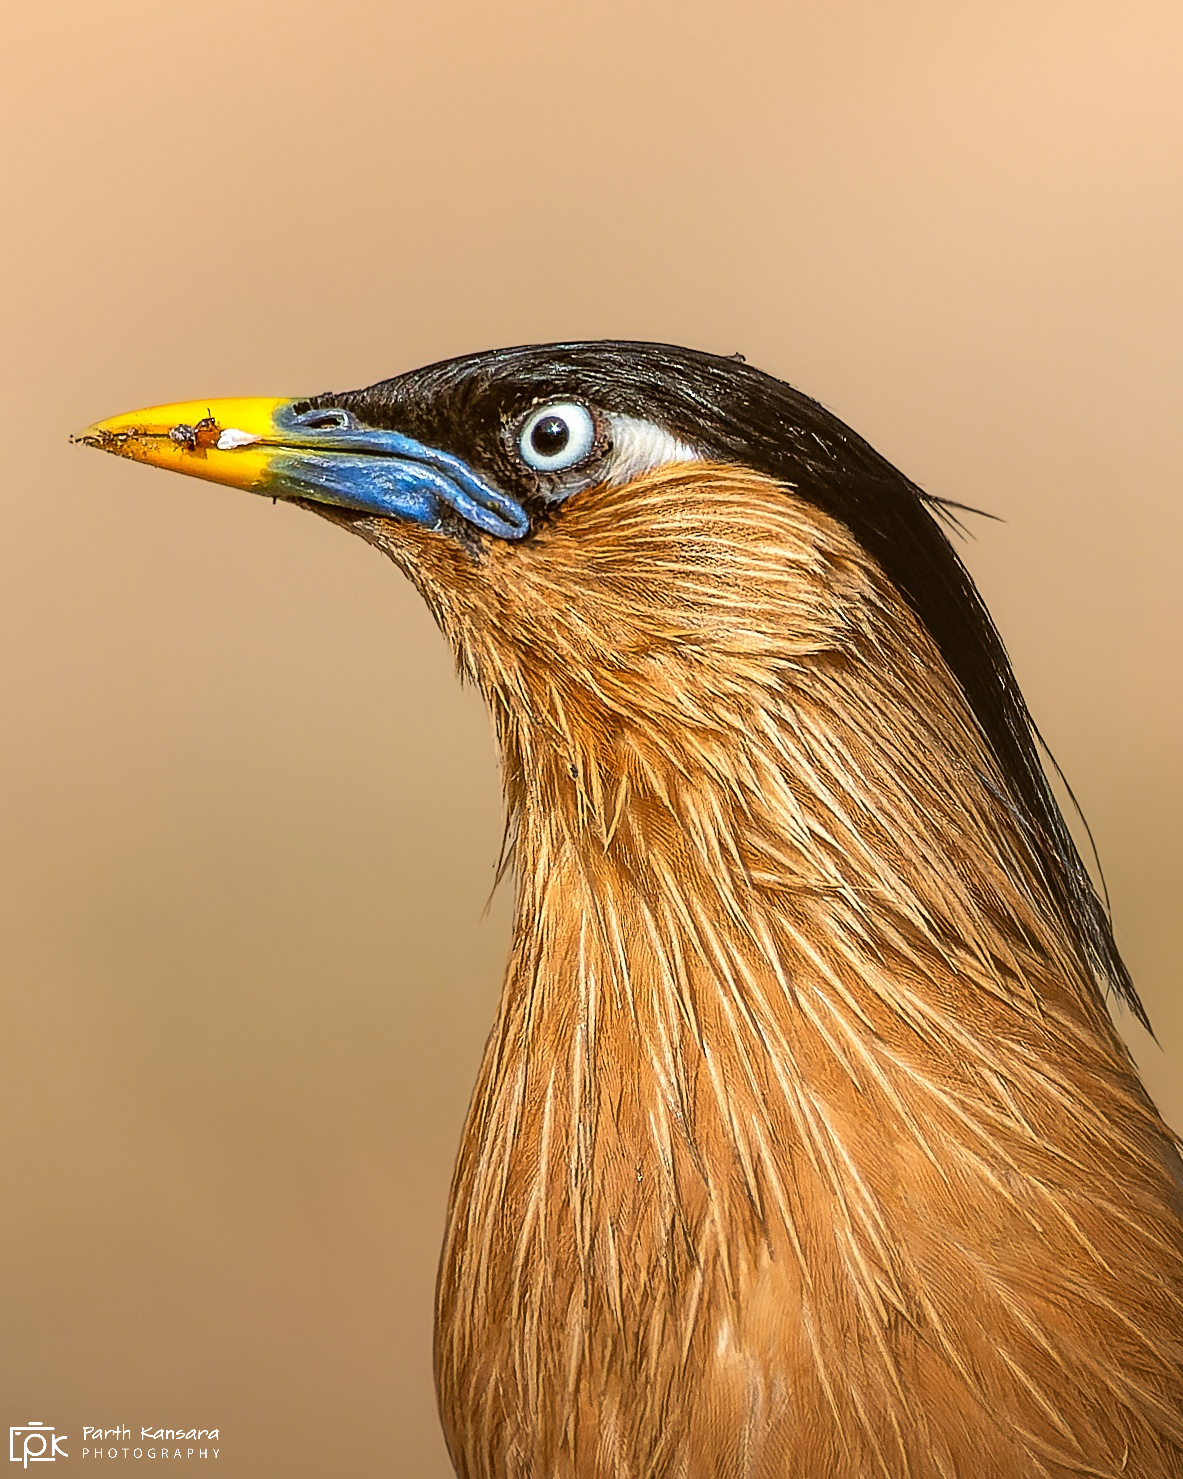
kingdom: Animalia
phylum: Chordata
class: Aves
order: Passeriformes
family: Sturnidae
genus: Sturnia
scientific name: Sturnia pagodarum
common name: Brahminy starling
